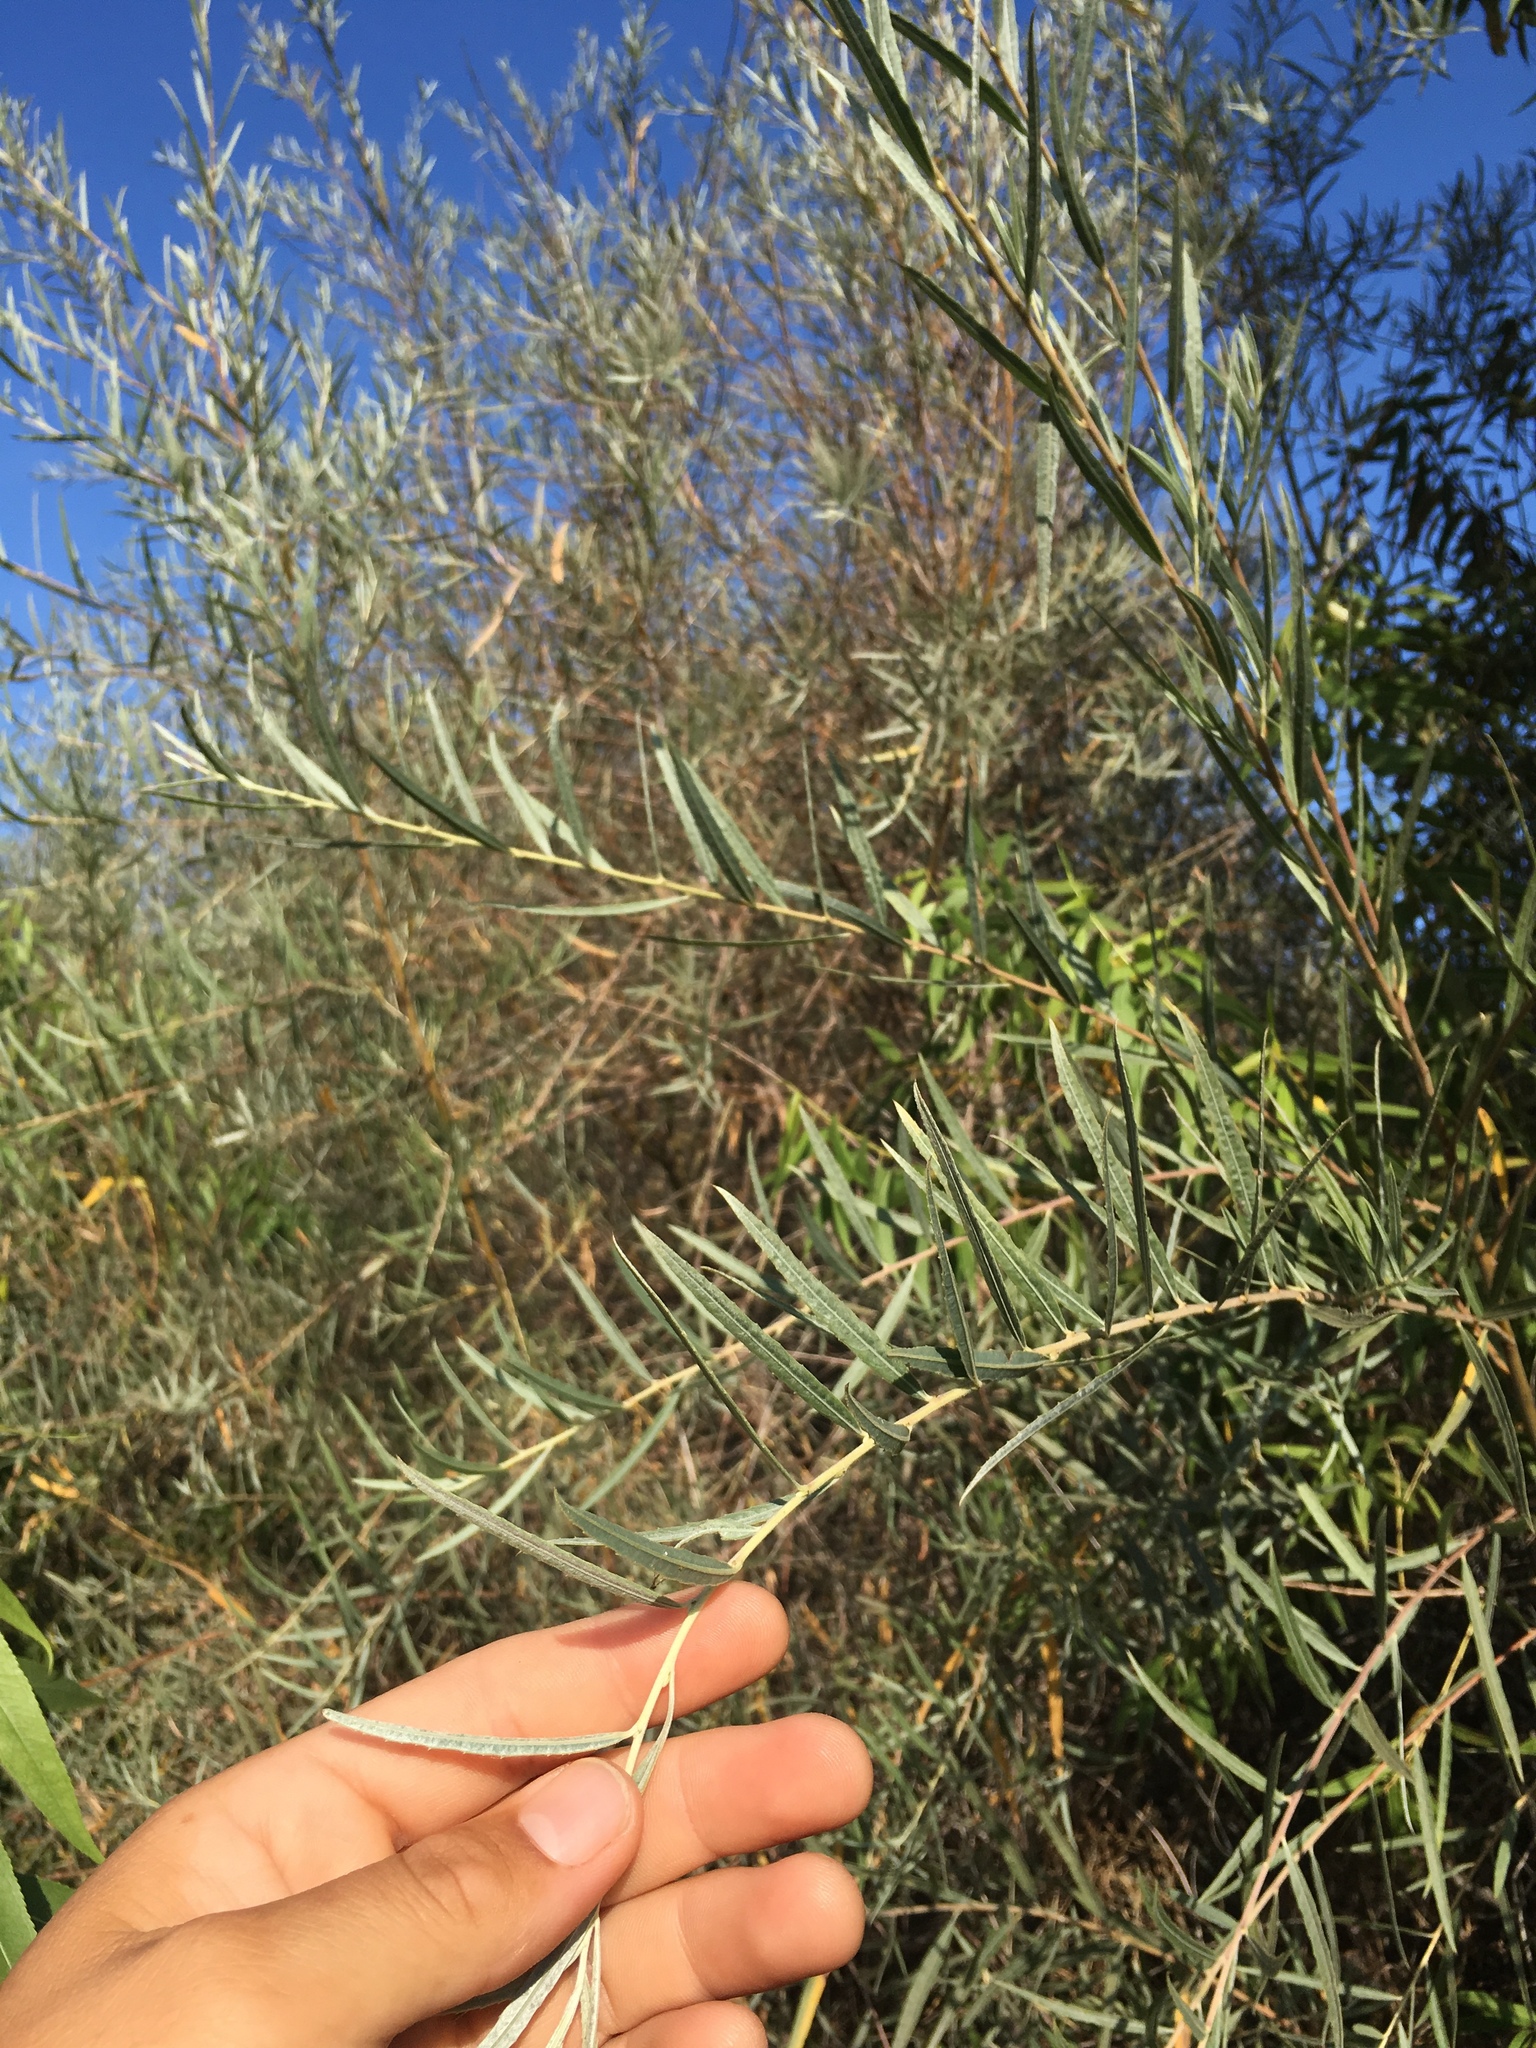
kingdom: Plantae
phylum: Tracheophyta
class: Magnoliopsida
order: Malpighiales
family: Salicaceae
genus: Salix
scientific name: Salix exigua
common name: Coyote willow
